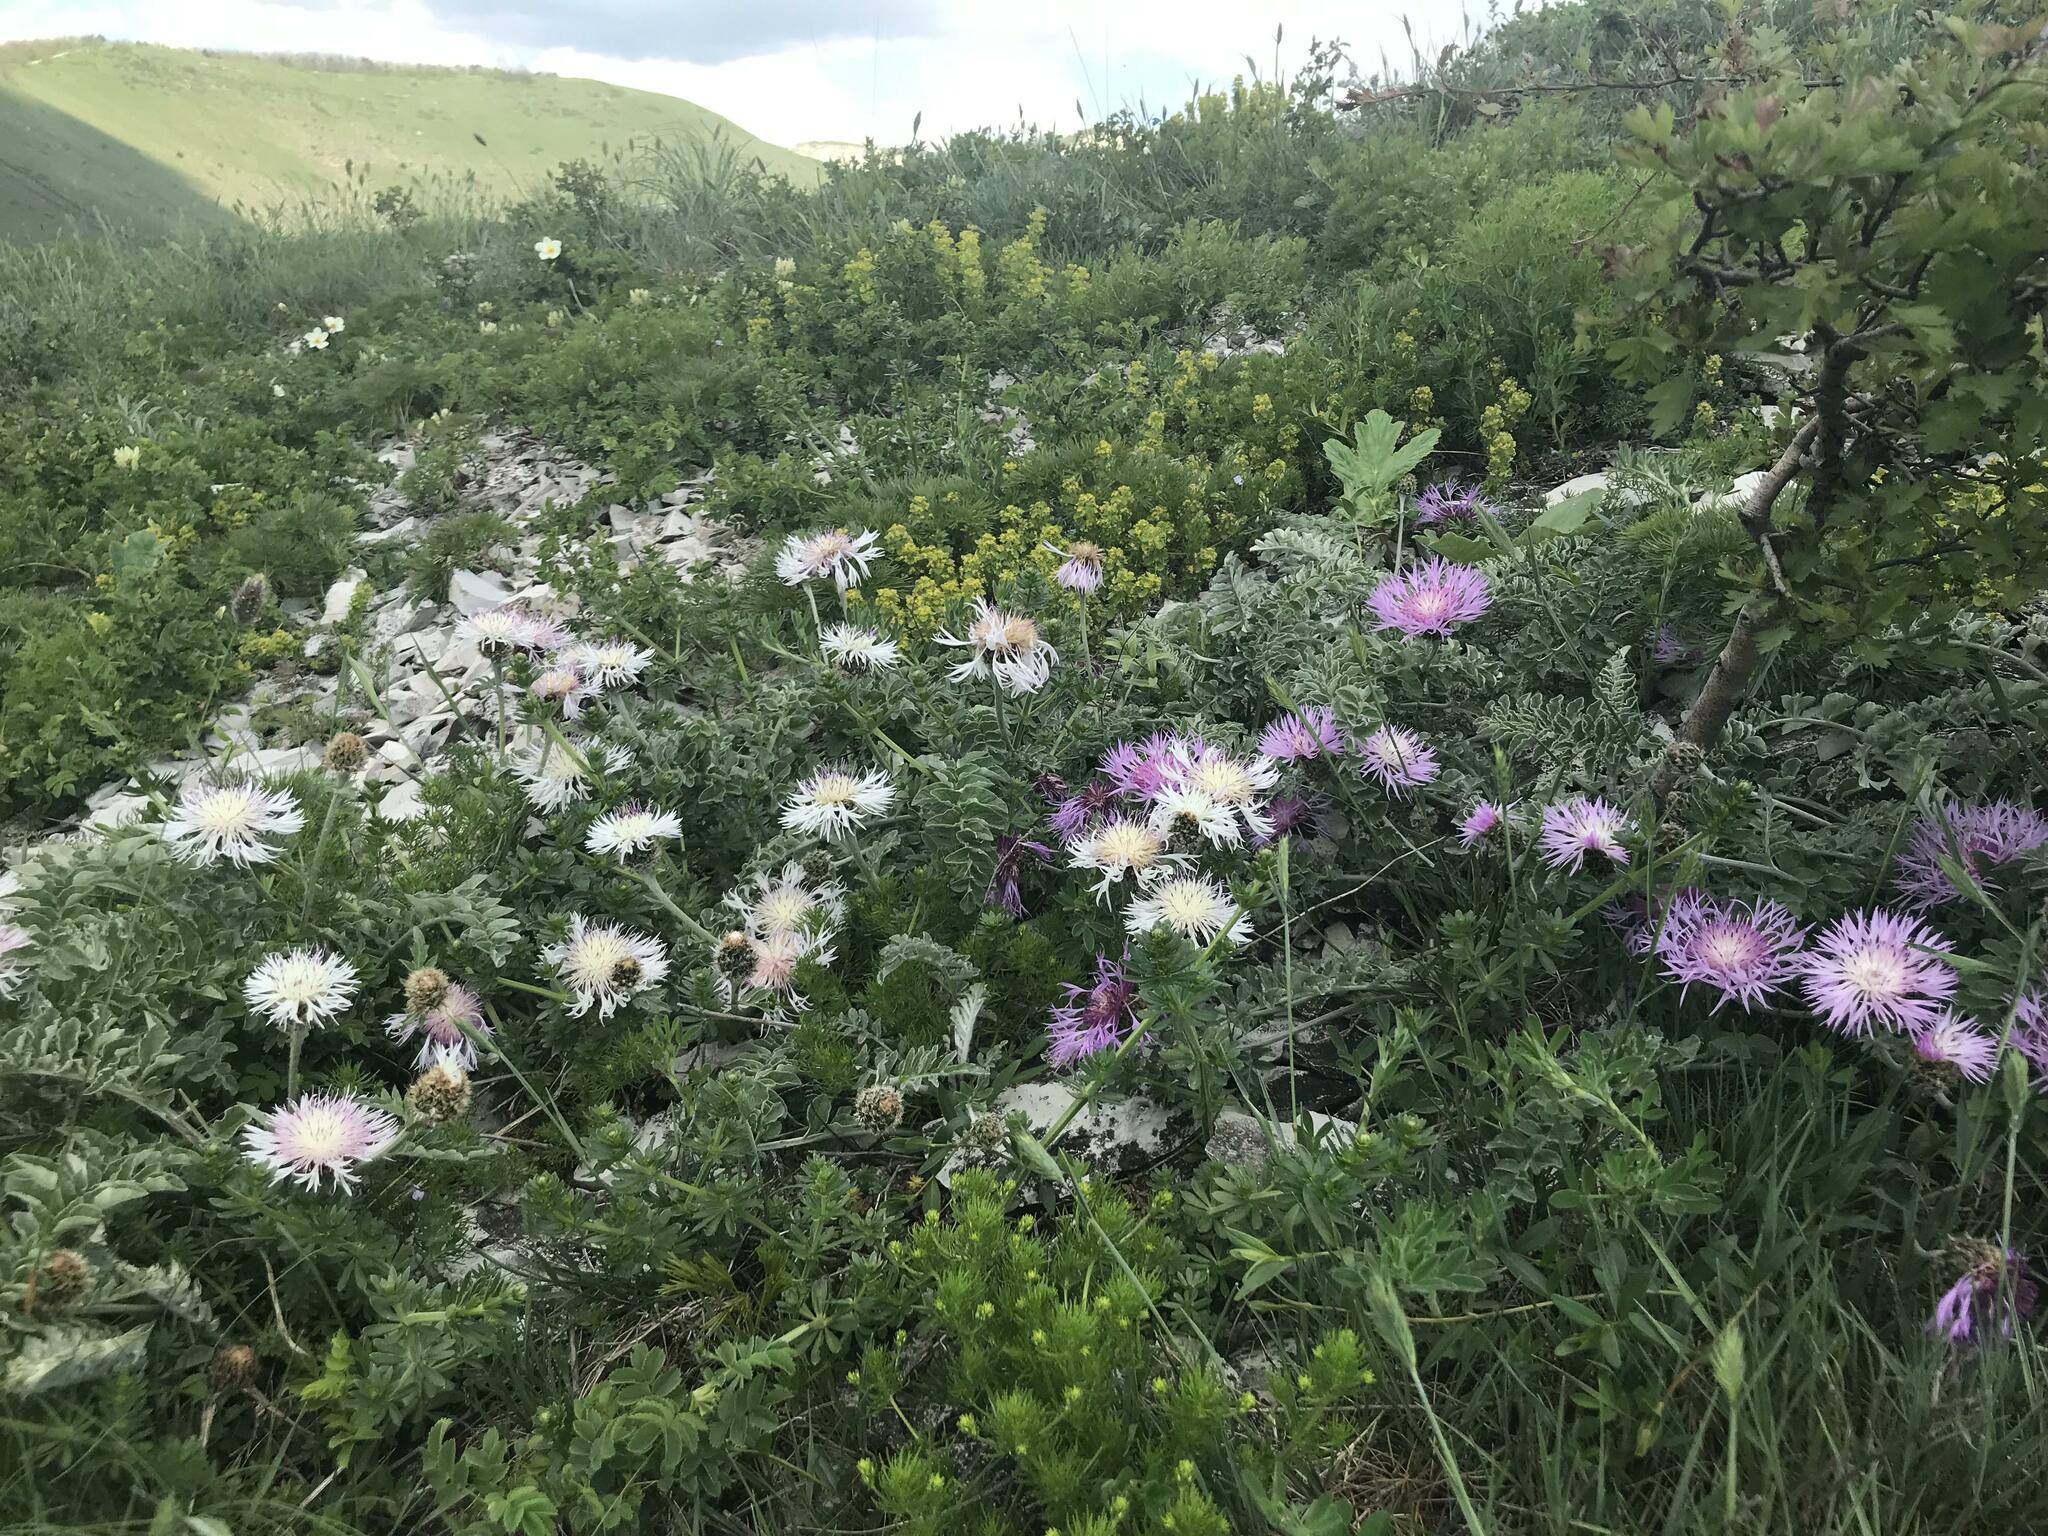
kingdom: Plantae
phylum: Tracheophyta
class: Magnoliopsida
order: Asterales
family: Asteraceae
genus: Psephellus
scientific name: Psephellus declinatus
